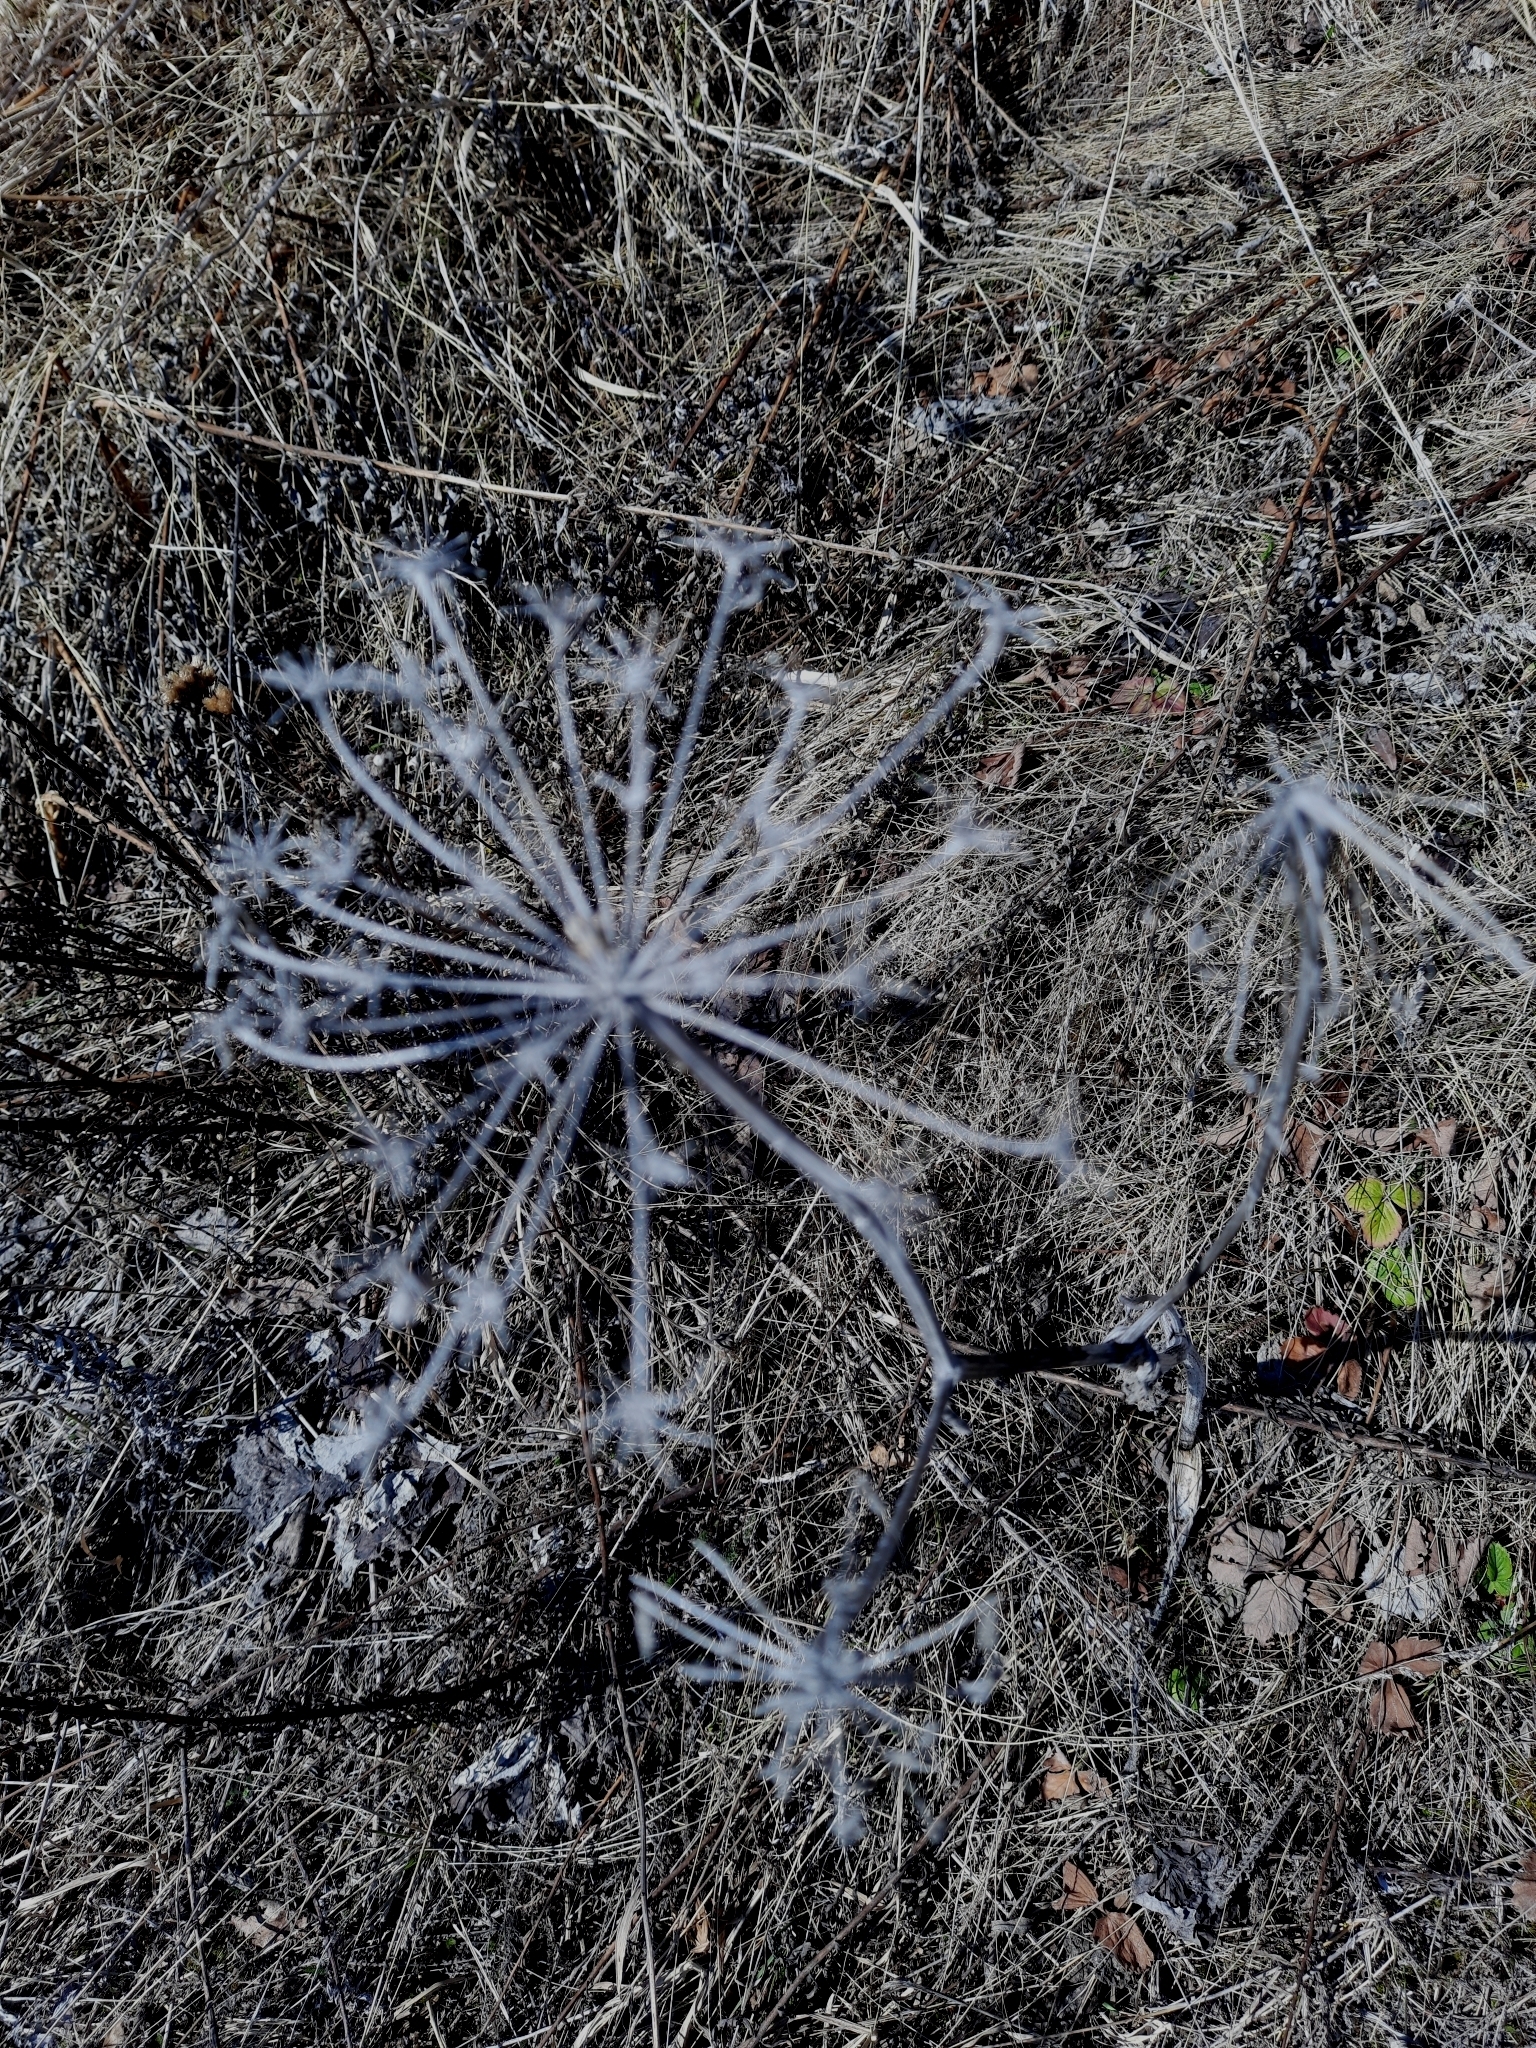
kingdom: Plantae
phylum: Tracheophyta
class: Magnoliopsida
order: Apiales
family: Apiaceae
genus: Angelica
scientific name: Angelica sylvestris
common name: Wild angelica
